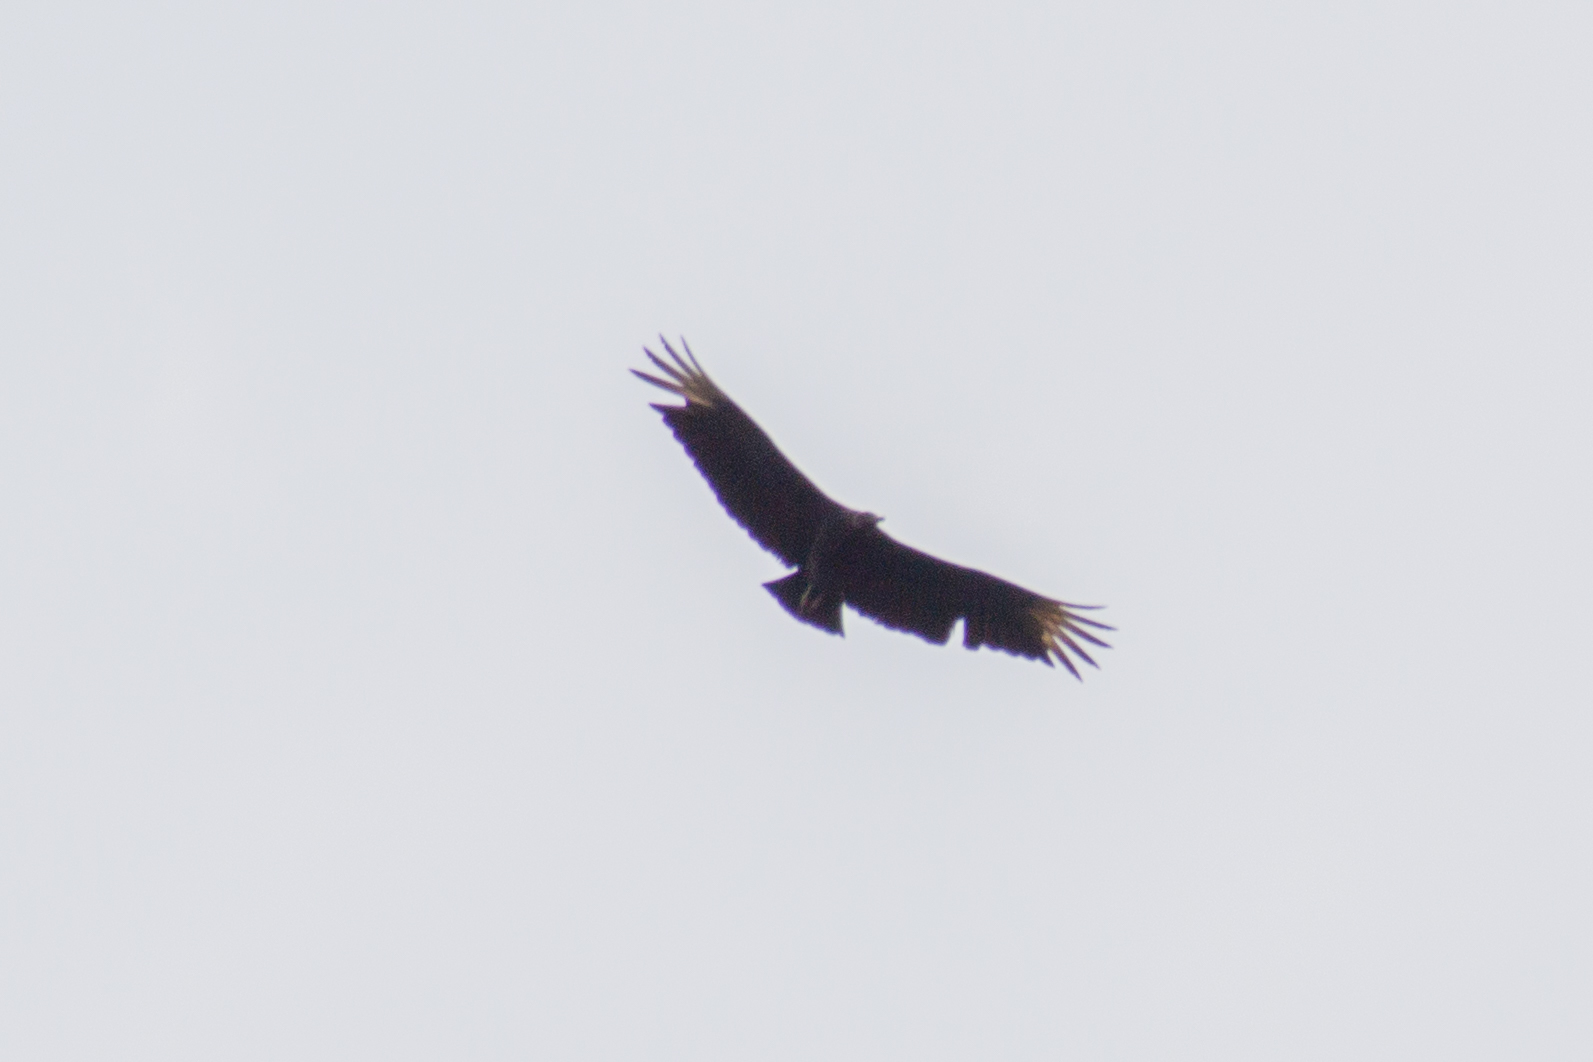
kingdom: Animalia
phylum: Chordata
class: Aves
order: Accipitriformes
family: Cathartidae
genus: Coragyps
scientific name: Coragyps atratus
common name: Black vulture
